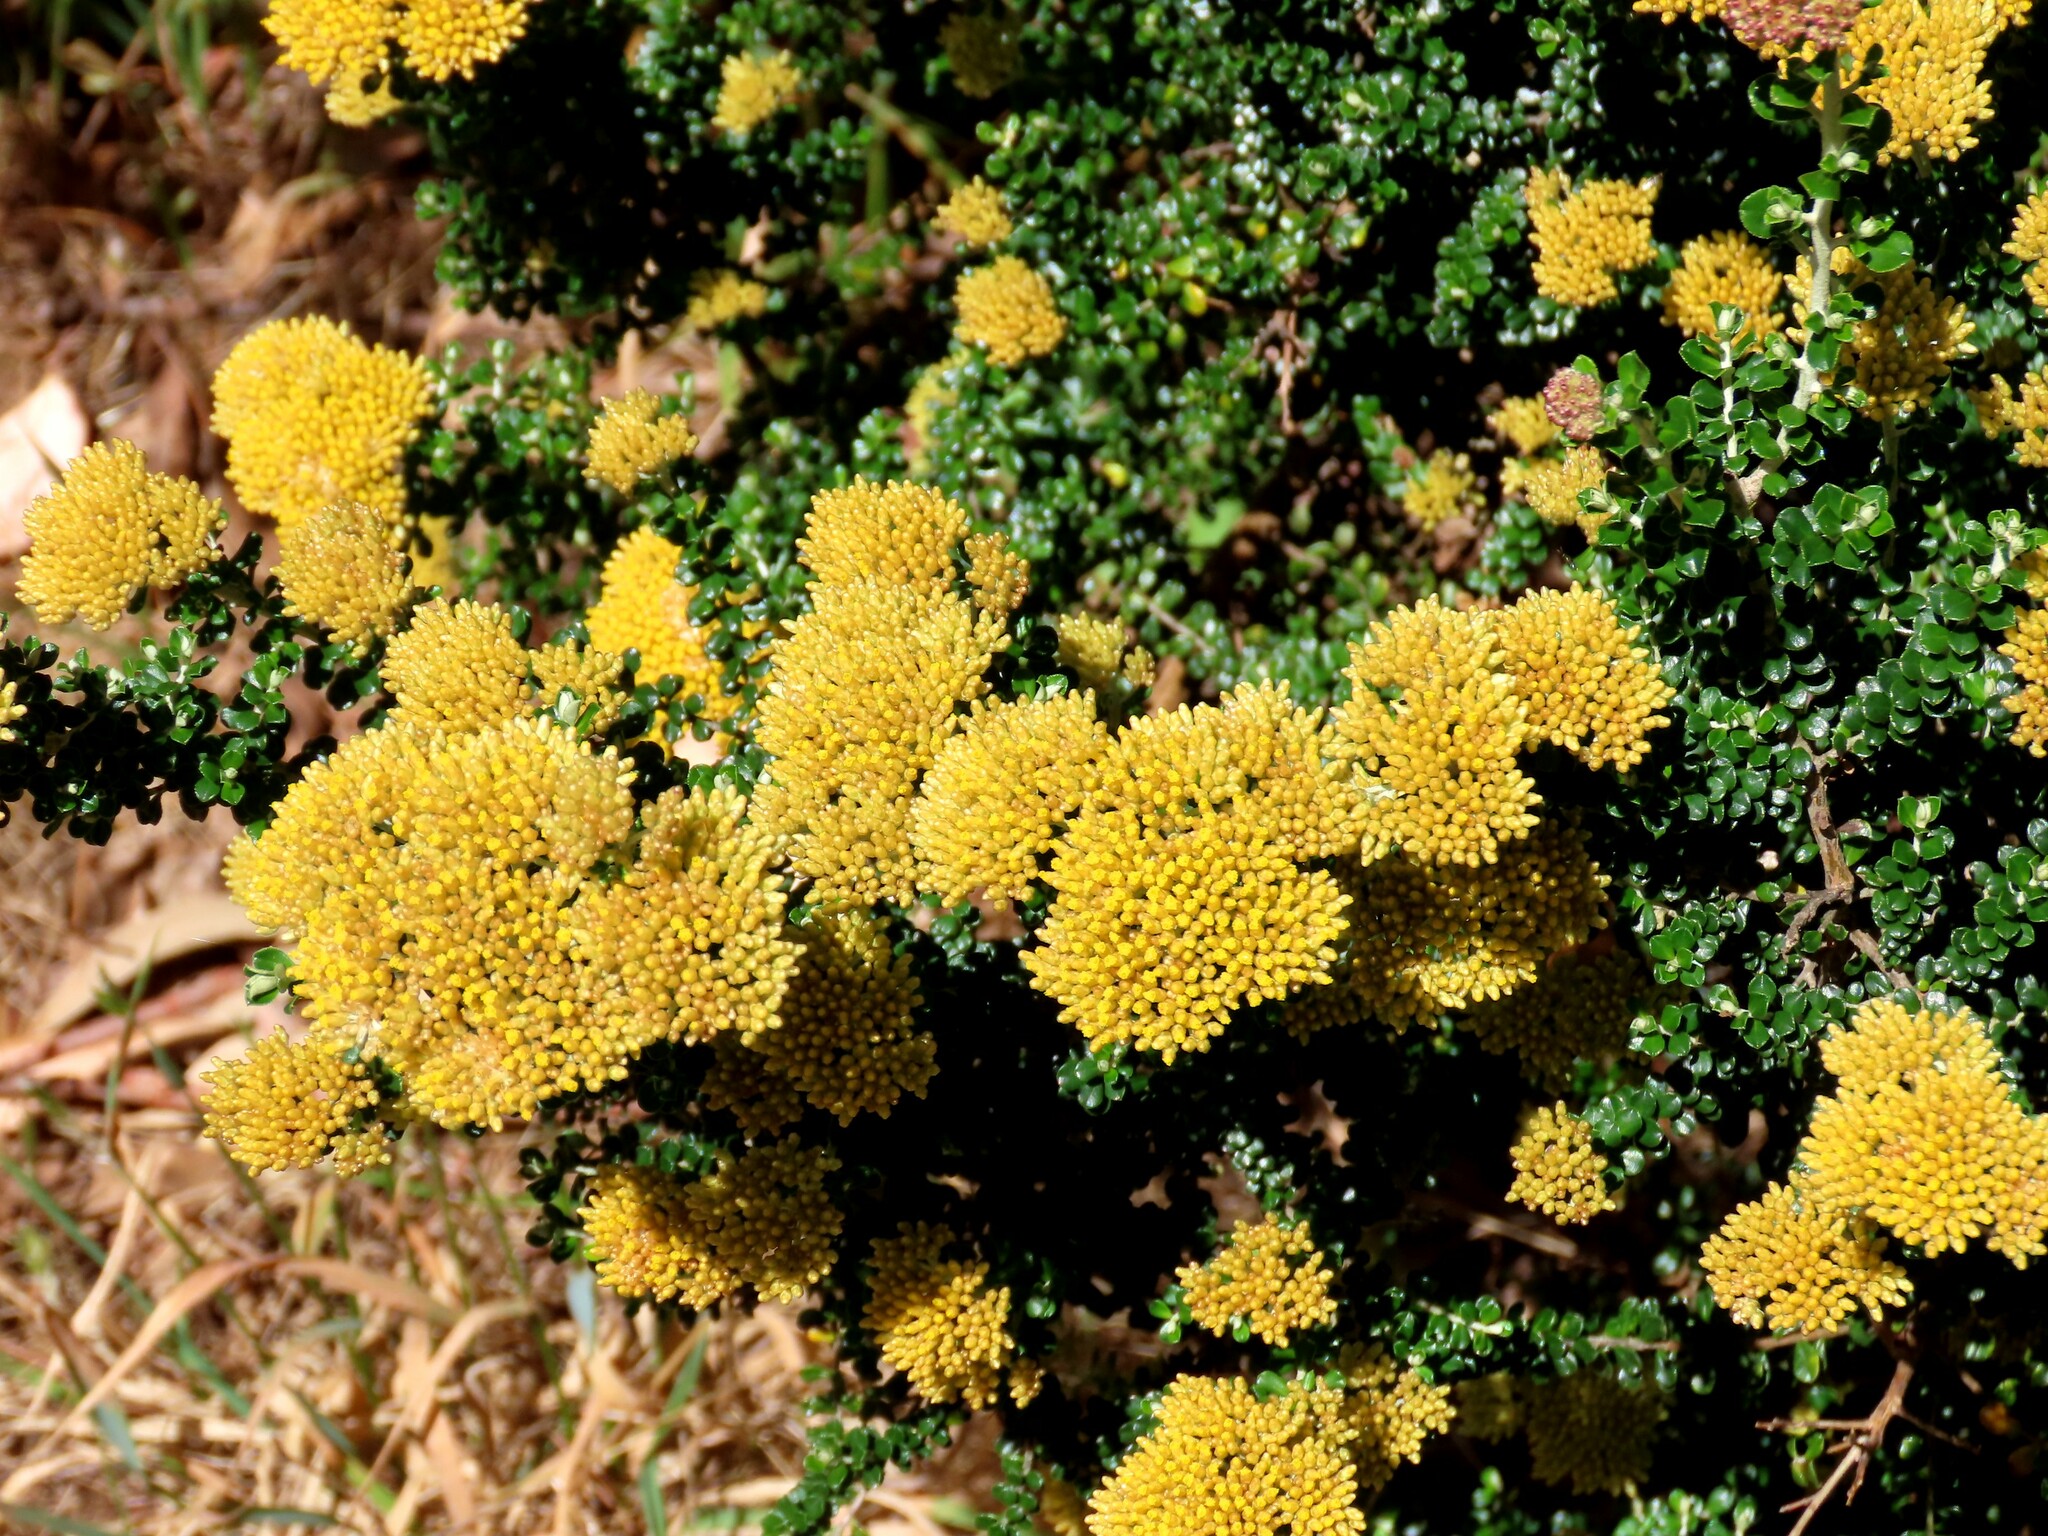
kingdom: Plantae
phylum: Tracheophyta
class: Magnoliopsida
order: Asterales
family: Asteraceae
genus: Ozothamnus
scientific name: Ozothamnus obcordatus
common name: Grey everlasting
